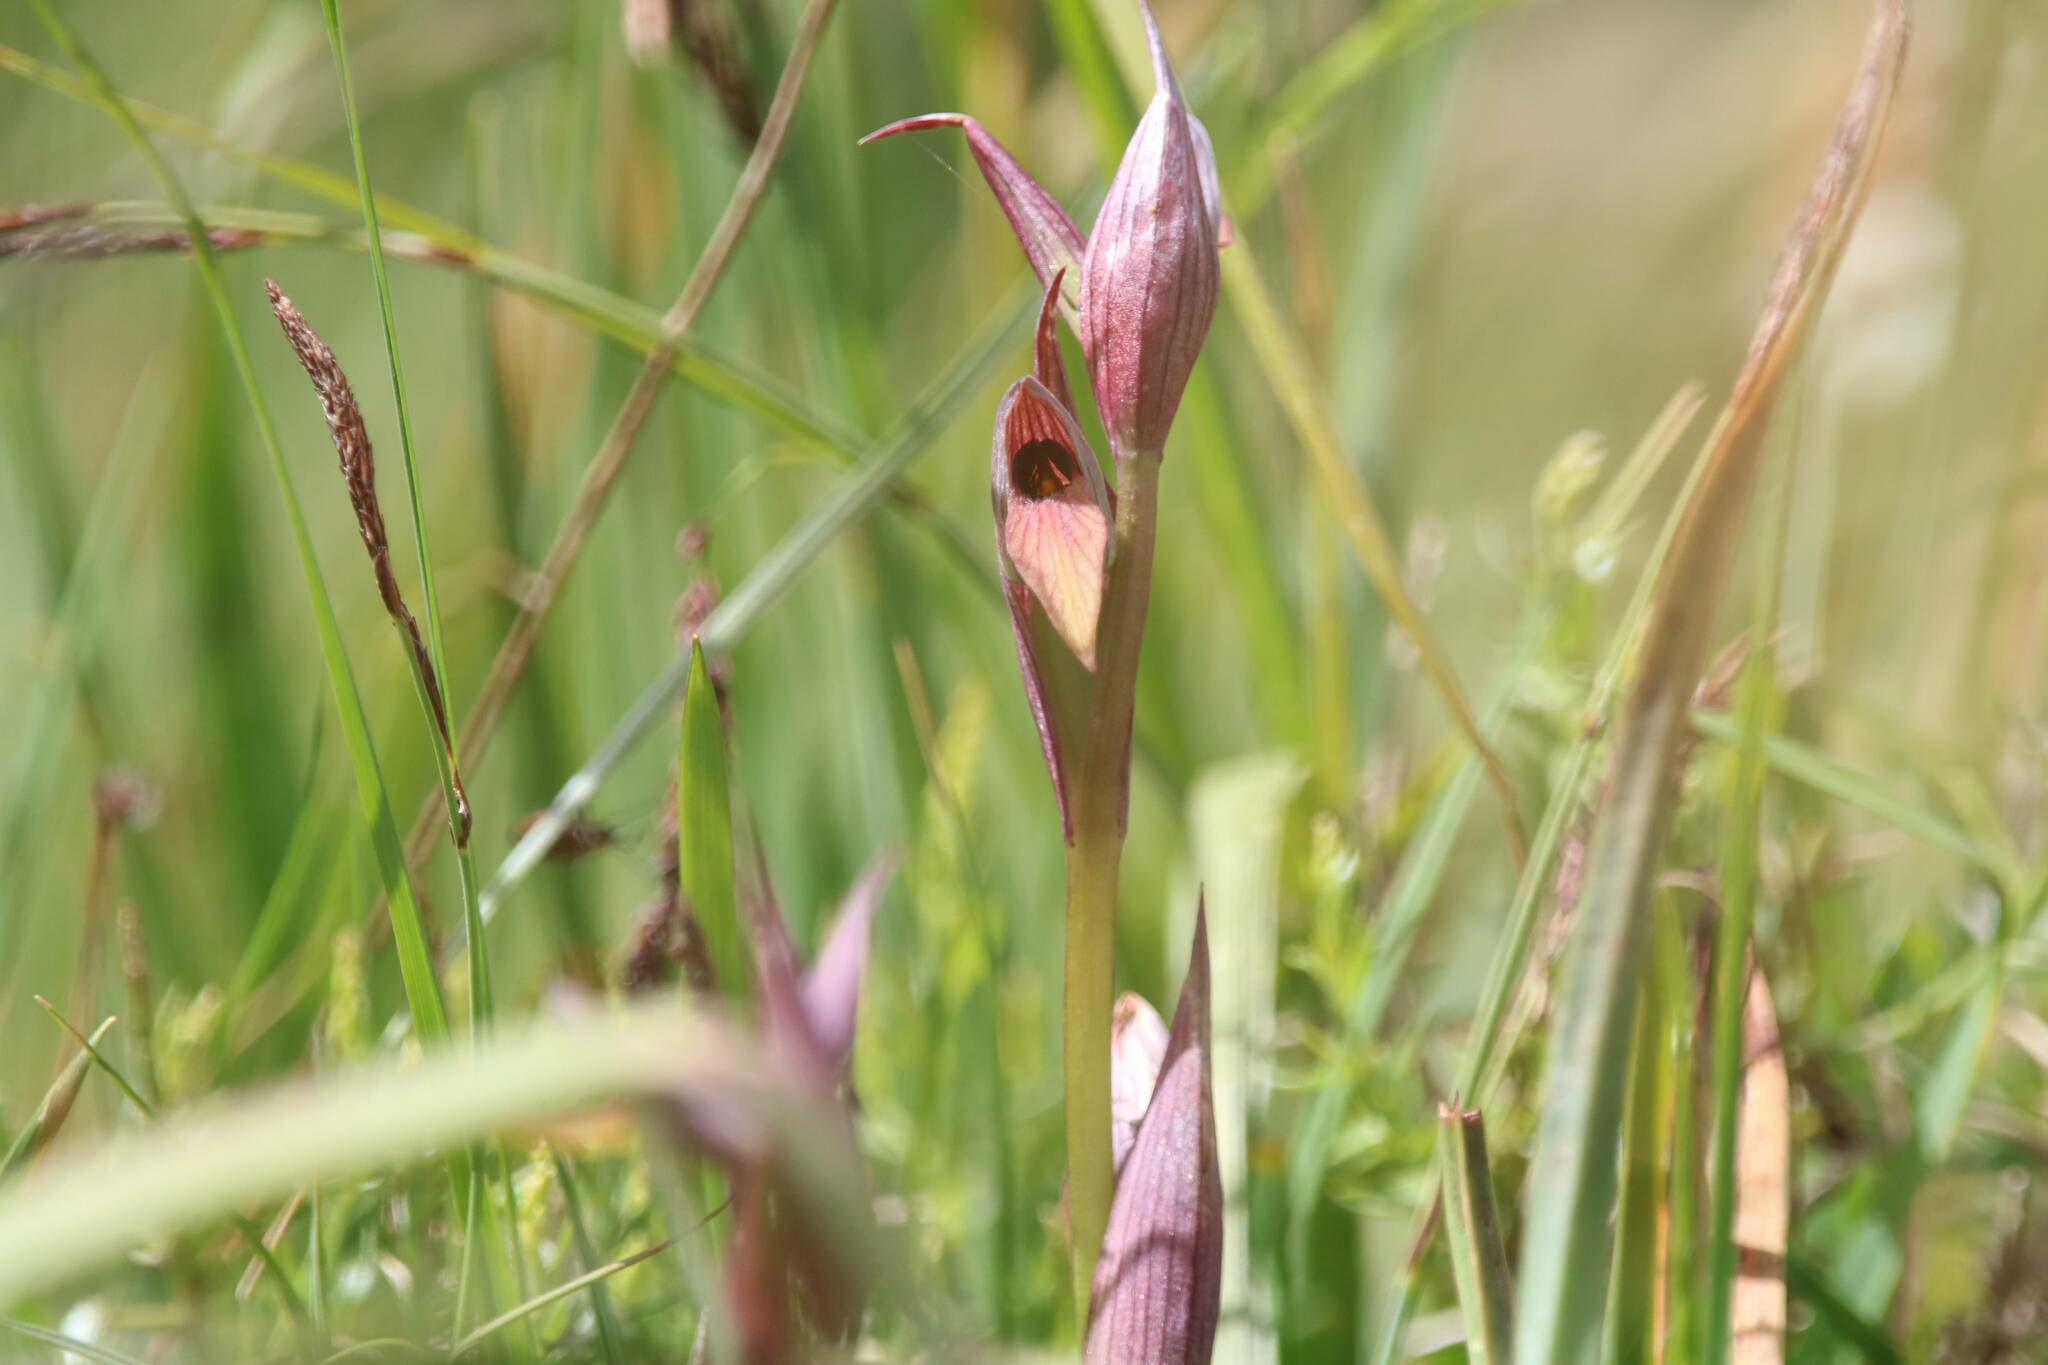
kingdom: Plantae
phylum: Tracheophyta
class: Liliopsida
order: Asparagales
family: Orchidaceae
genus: Serapias
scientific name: Serapias parviflora
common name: Small-flowered tongue-orchid
